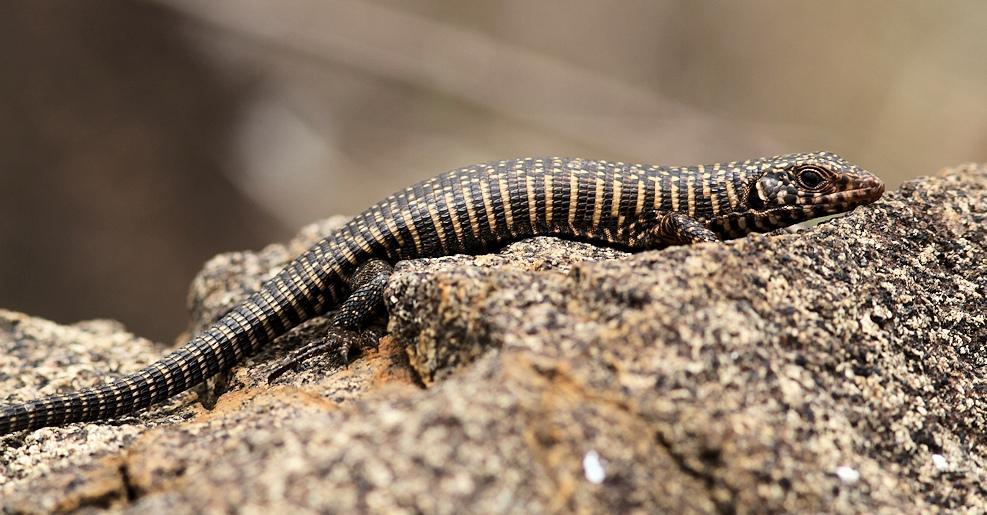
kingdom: Animalia
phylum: Chordata
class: Squamata
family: Gerrhosauridae
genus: Matobosaurus
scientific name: Matobosaurus validus
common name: Common giant plated lizard
